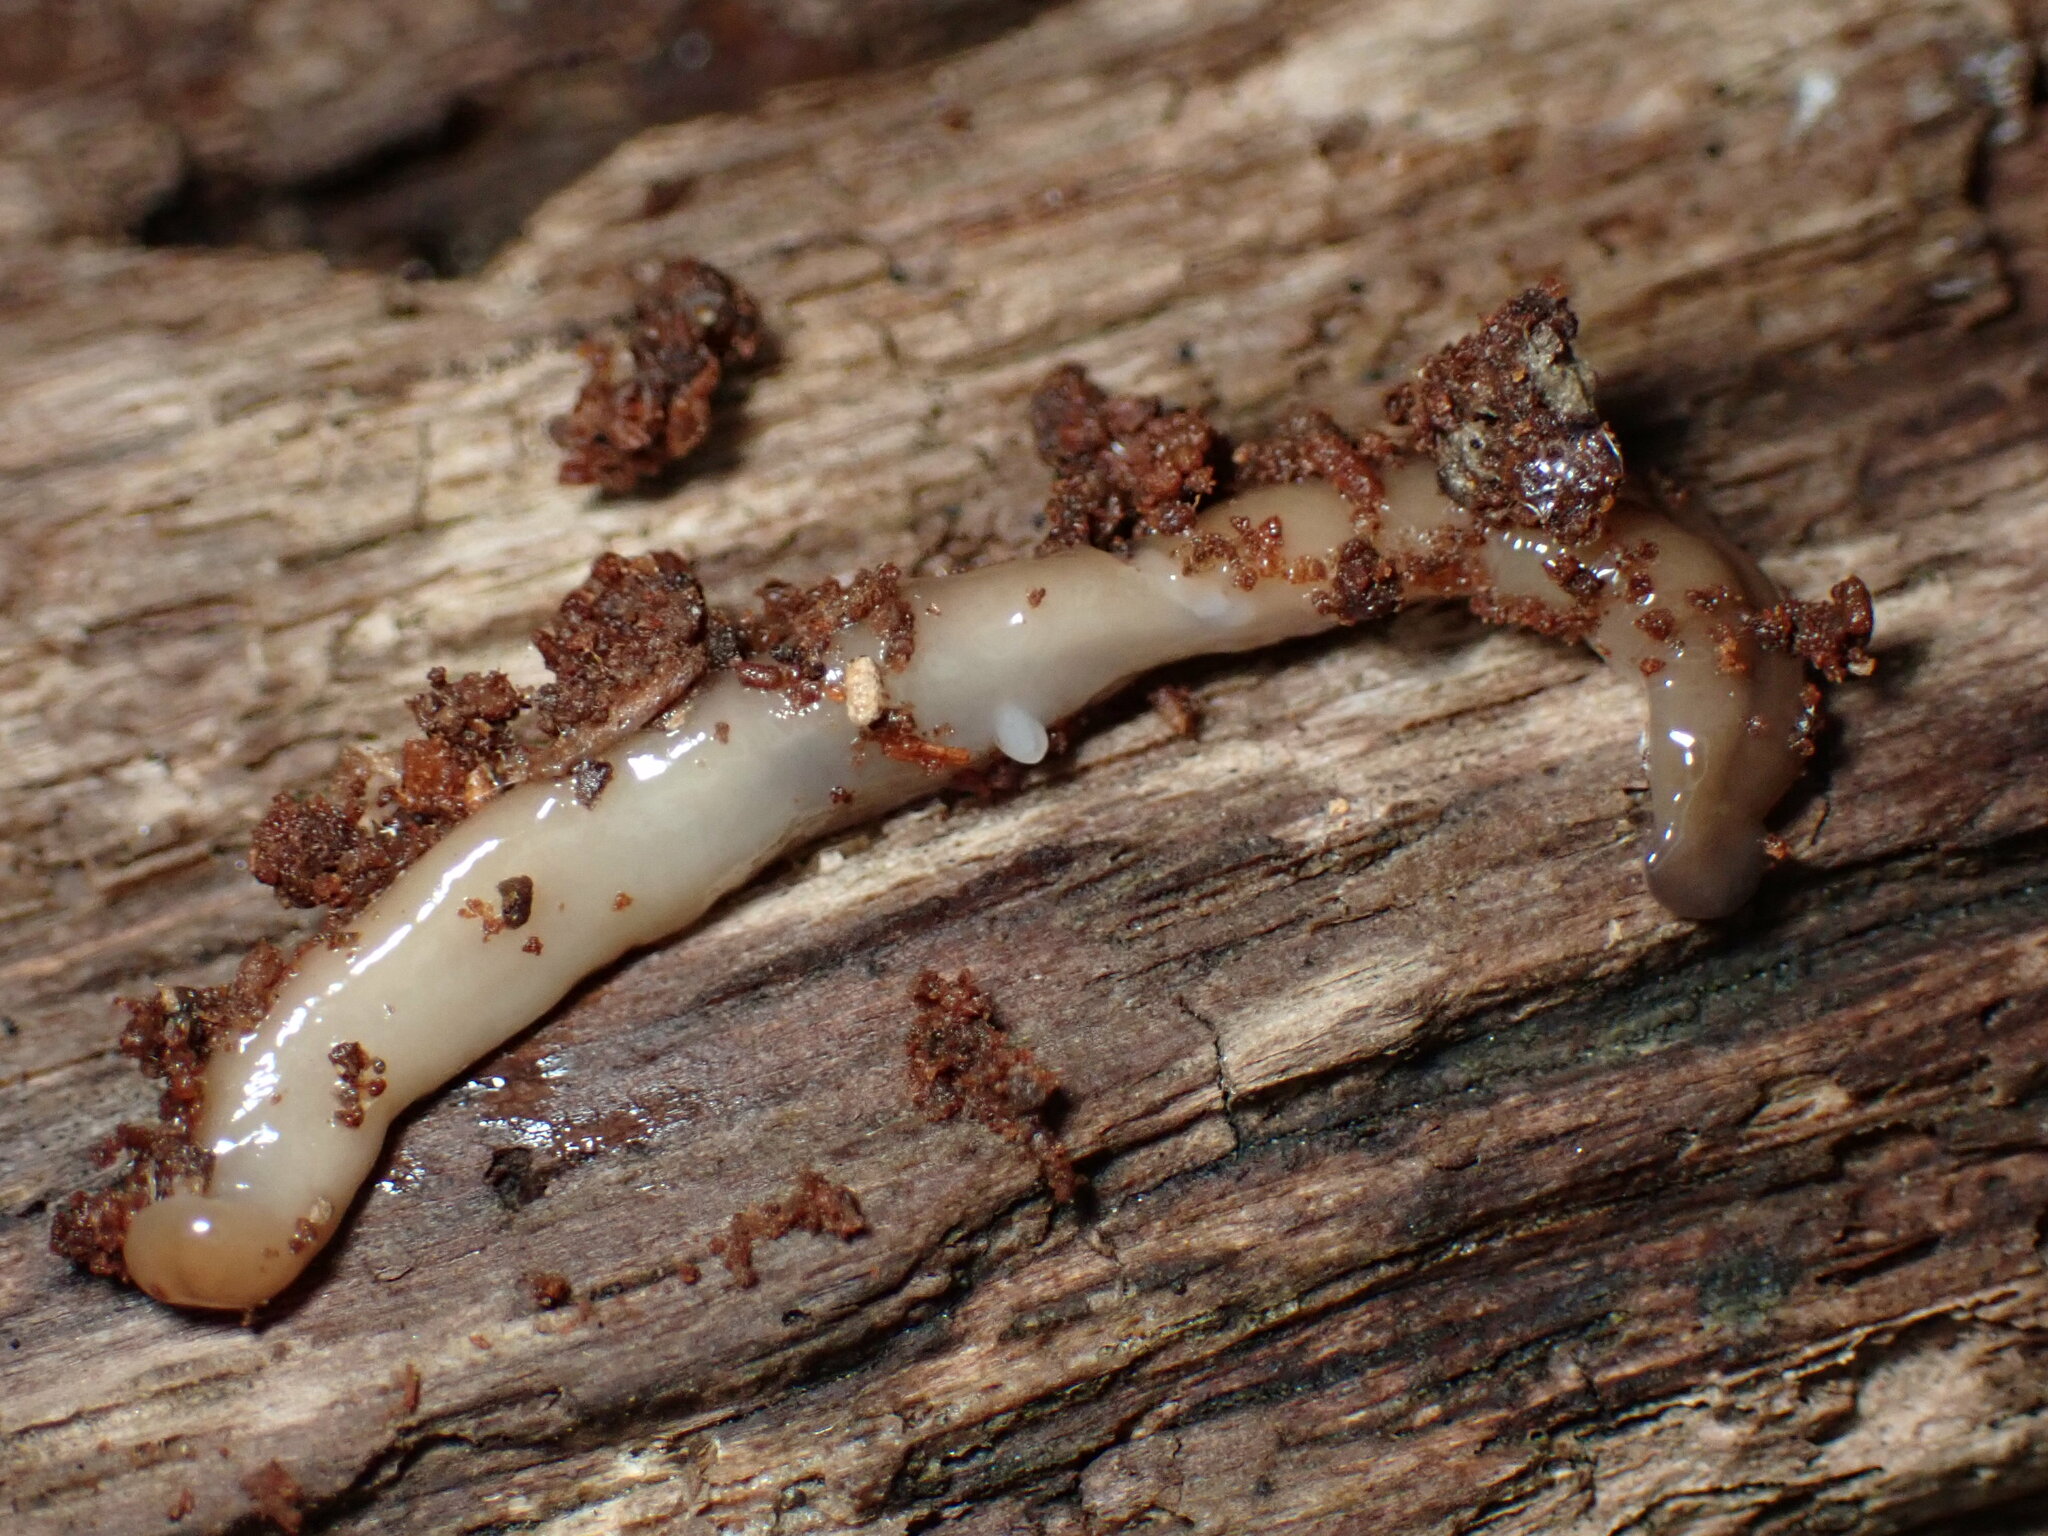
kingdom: Animalia
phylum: Platyhelminthes
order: Tricladida
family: Geoplanidae
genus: Bipalium
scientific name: Bipalium adventitium
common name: Land planarian
